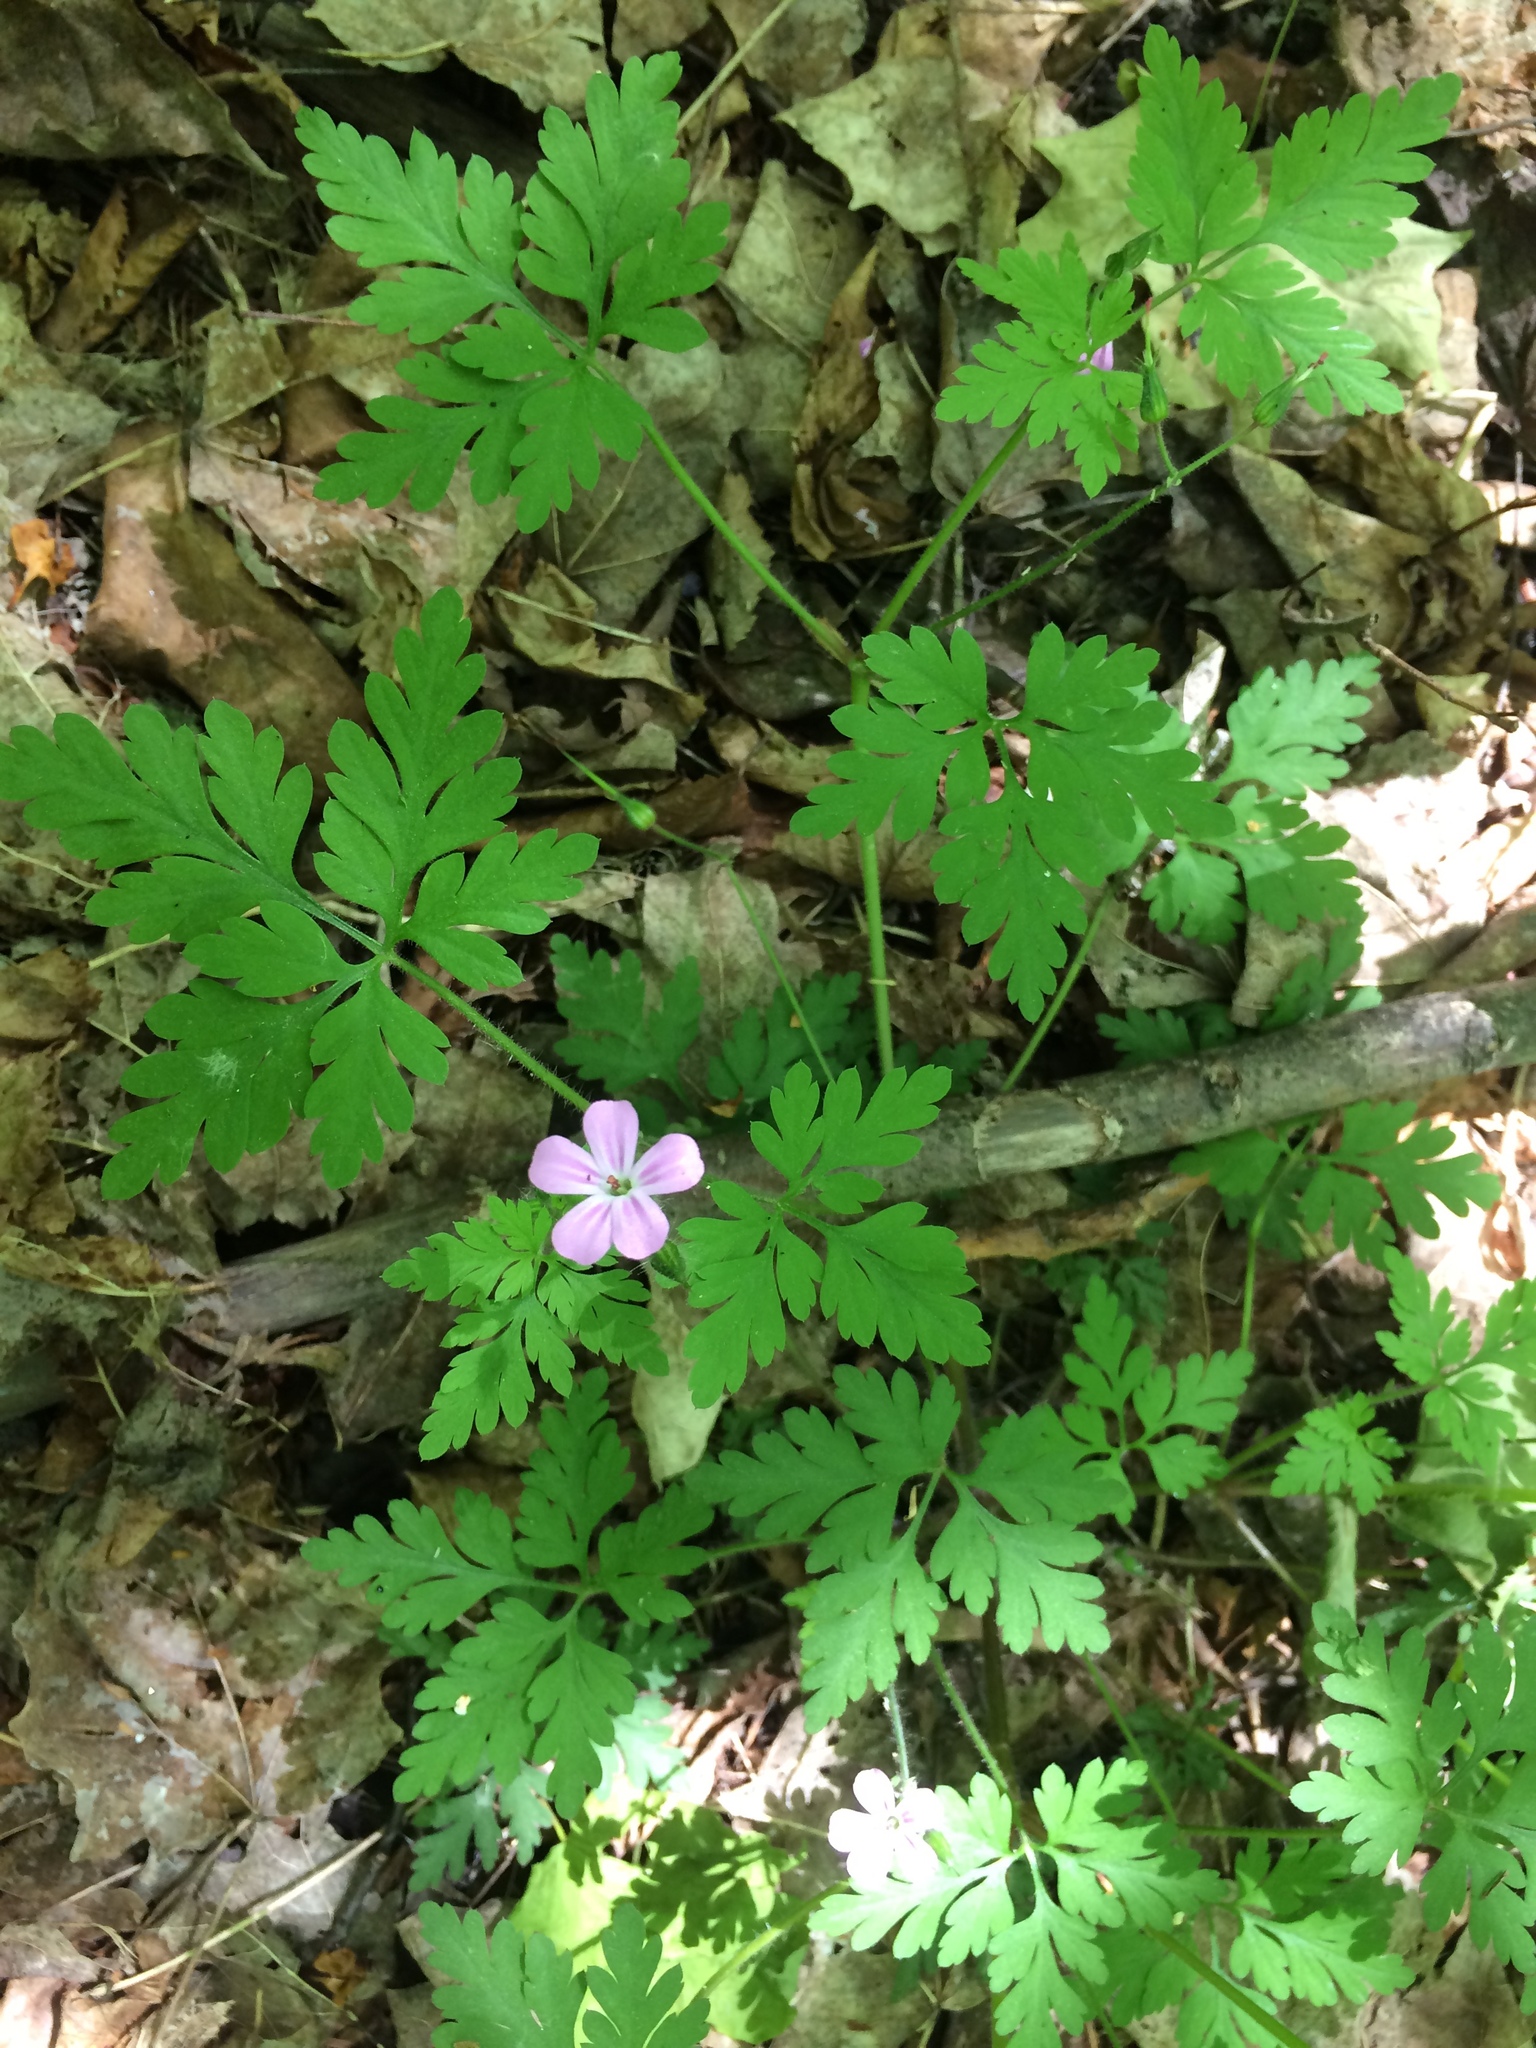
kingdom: Plantae
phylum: Tracheophyta
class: Magnoliopsida
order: Geraniales
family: Geraniaceae
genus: Geranium
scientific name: Geranium robertianum
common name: Herb-robert
